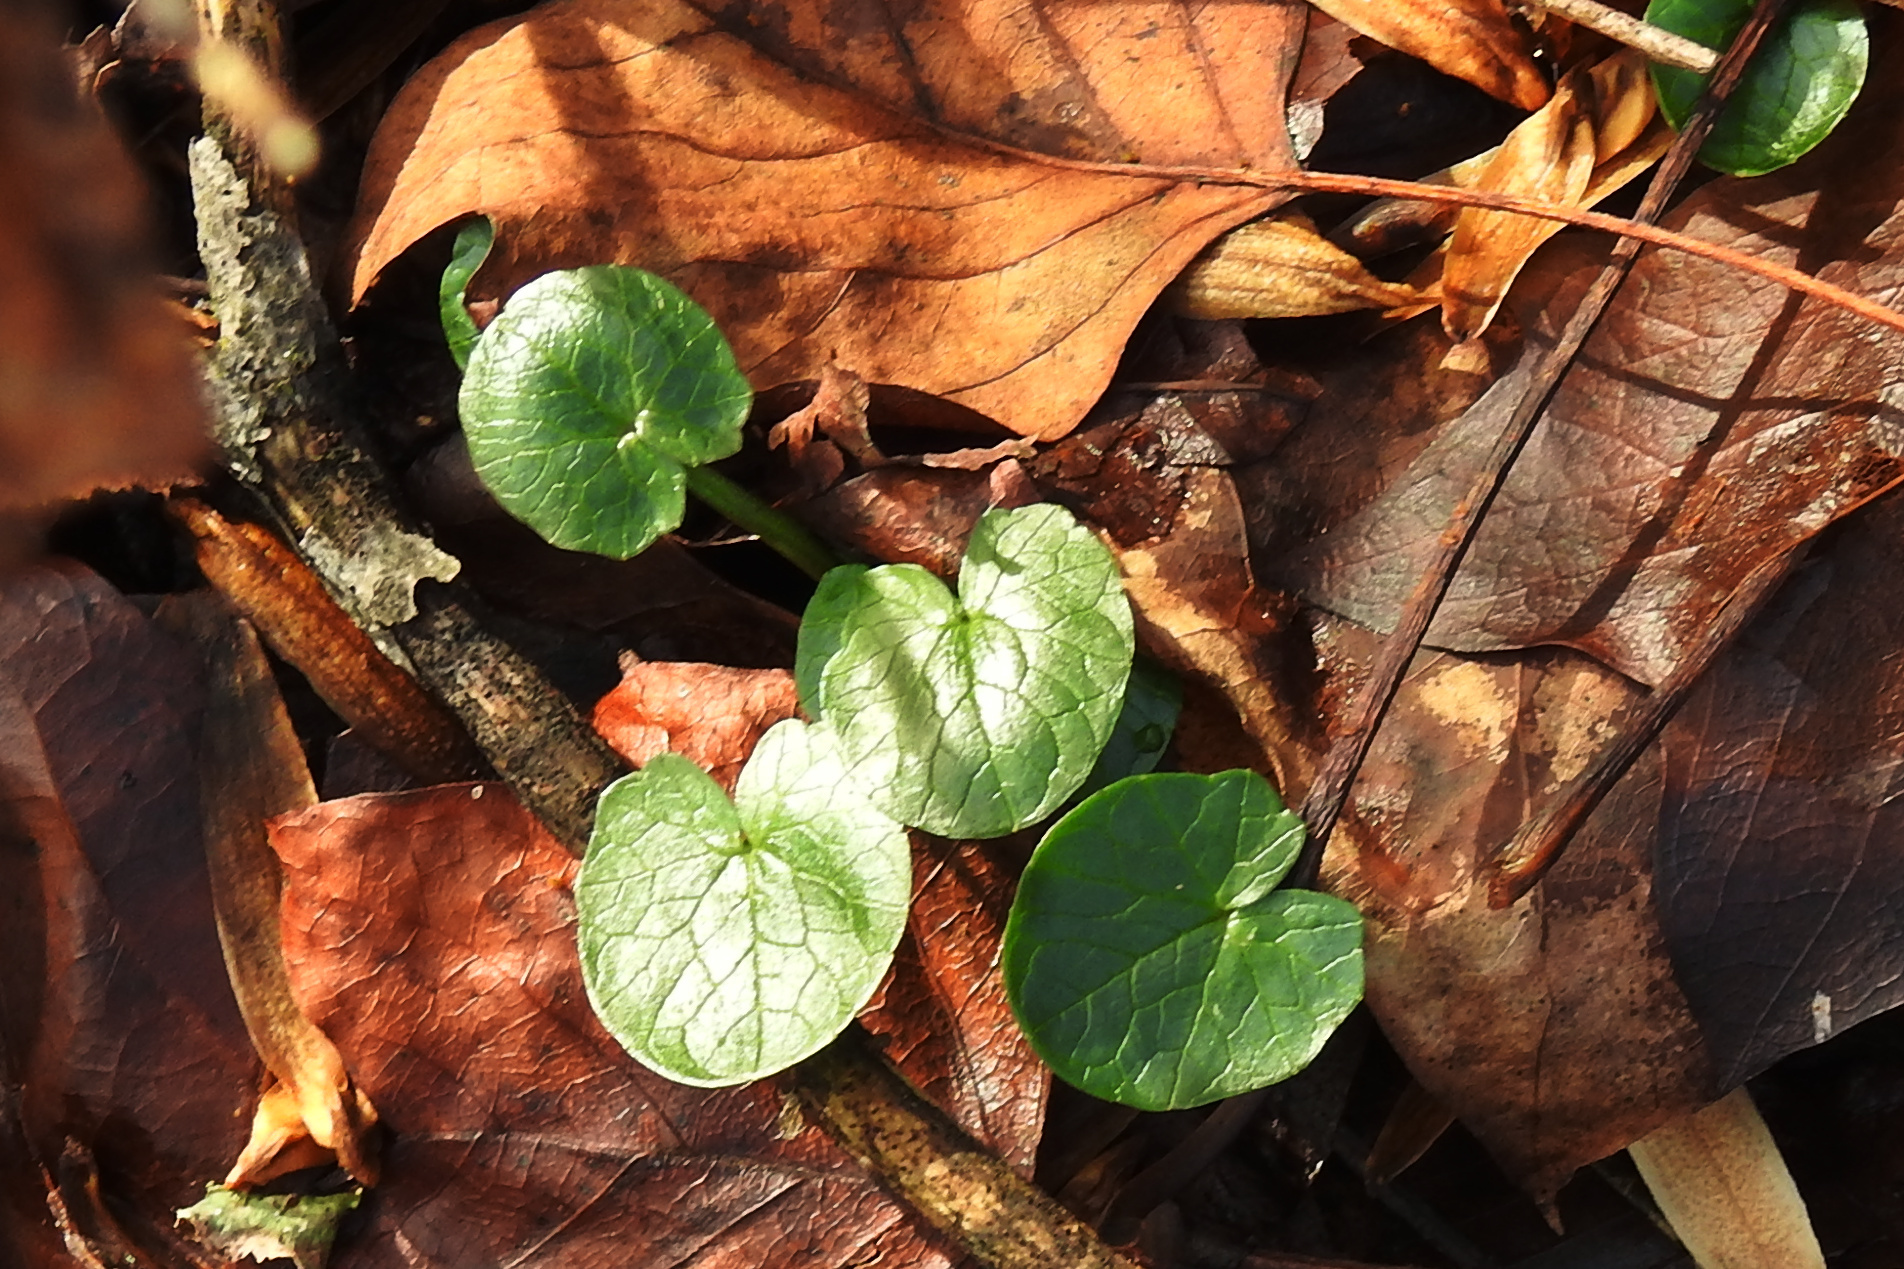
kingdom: Plantae
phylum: Tracheophyta
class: Magnoliopsida
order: Ranunculales
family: Ranunculaceae
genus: Ficaria
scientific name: Ficaria verna
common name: Lesser celandine
